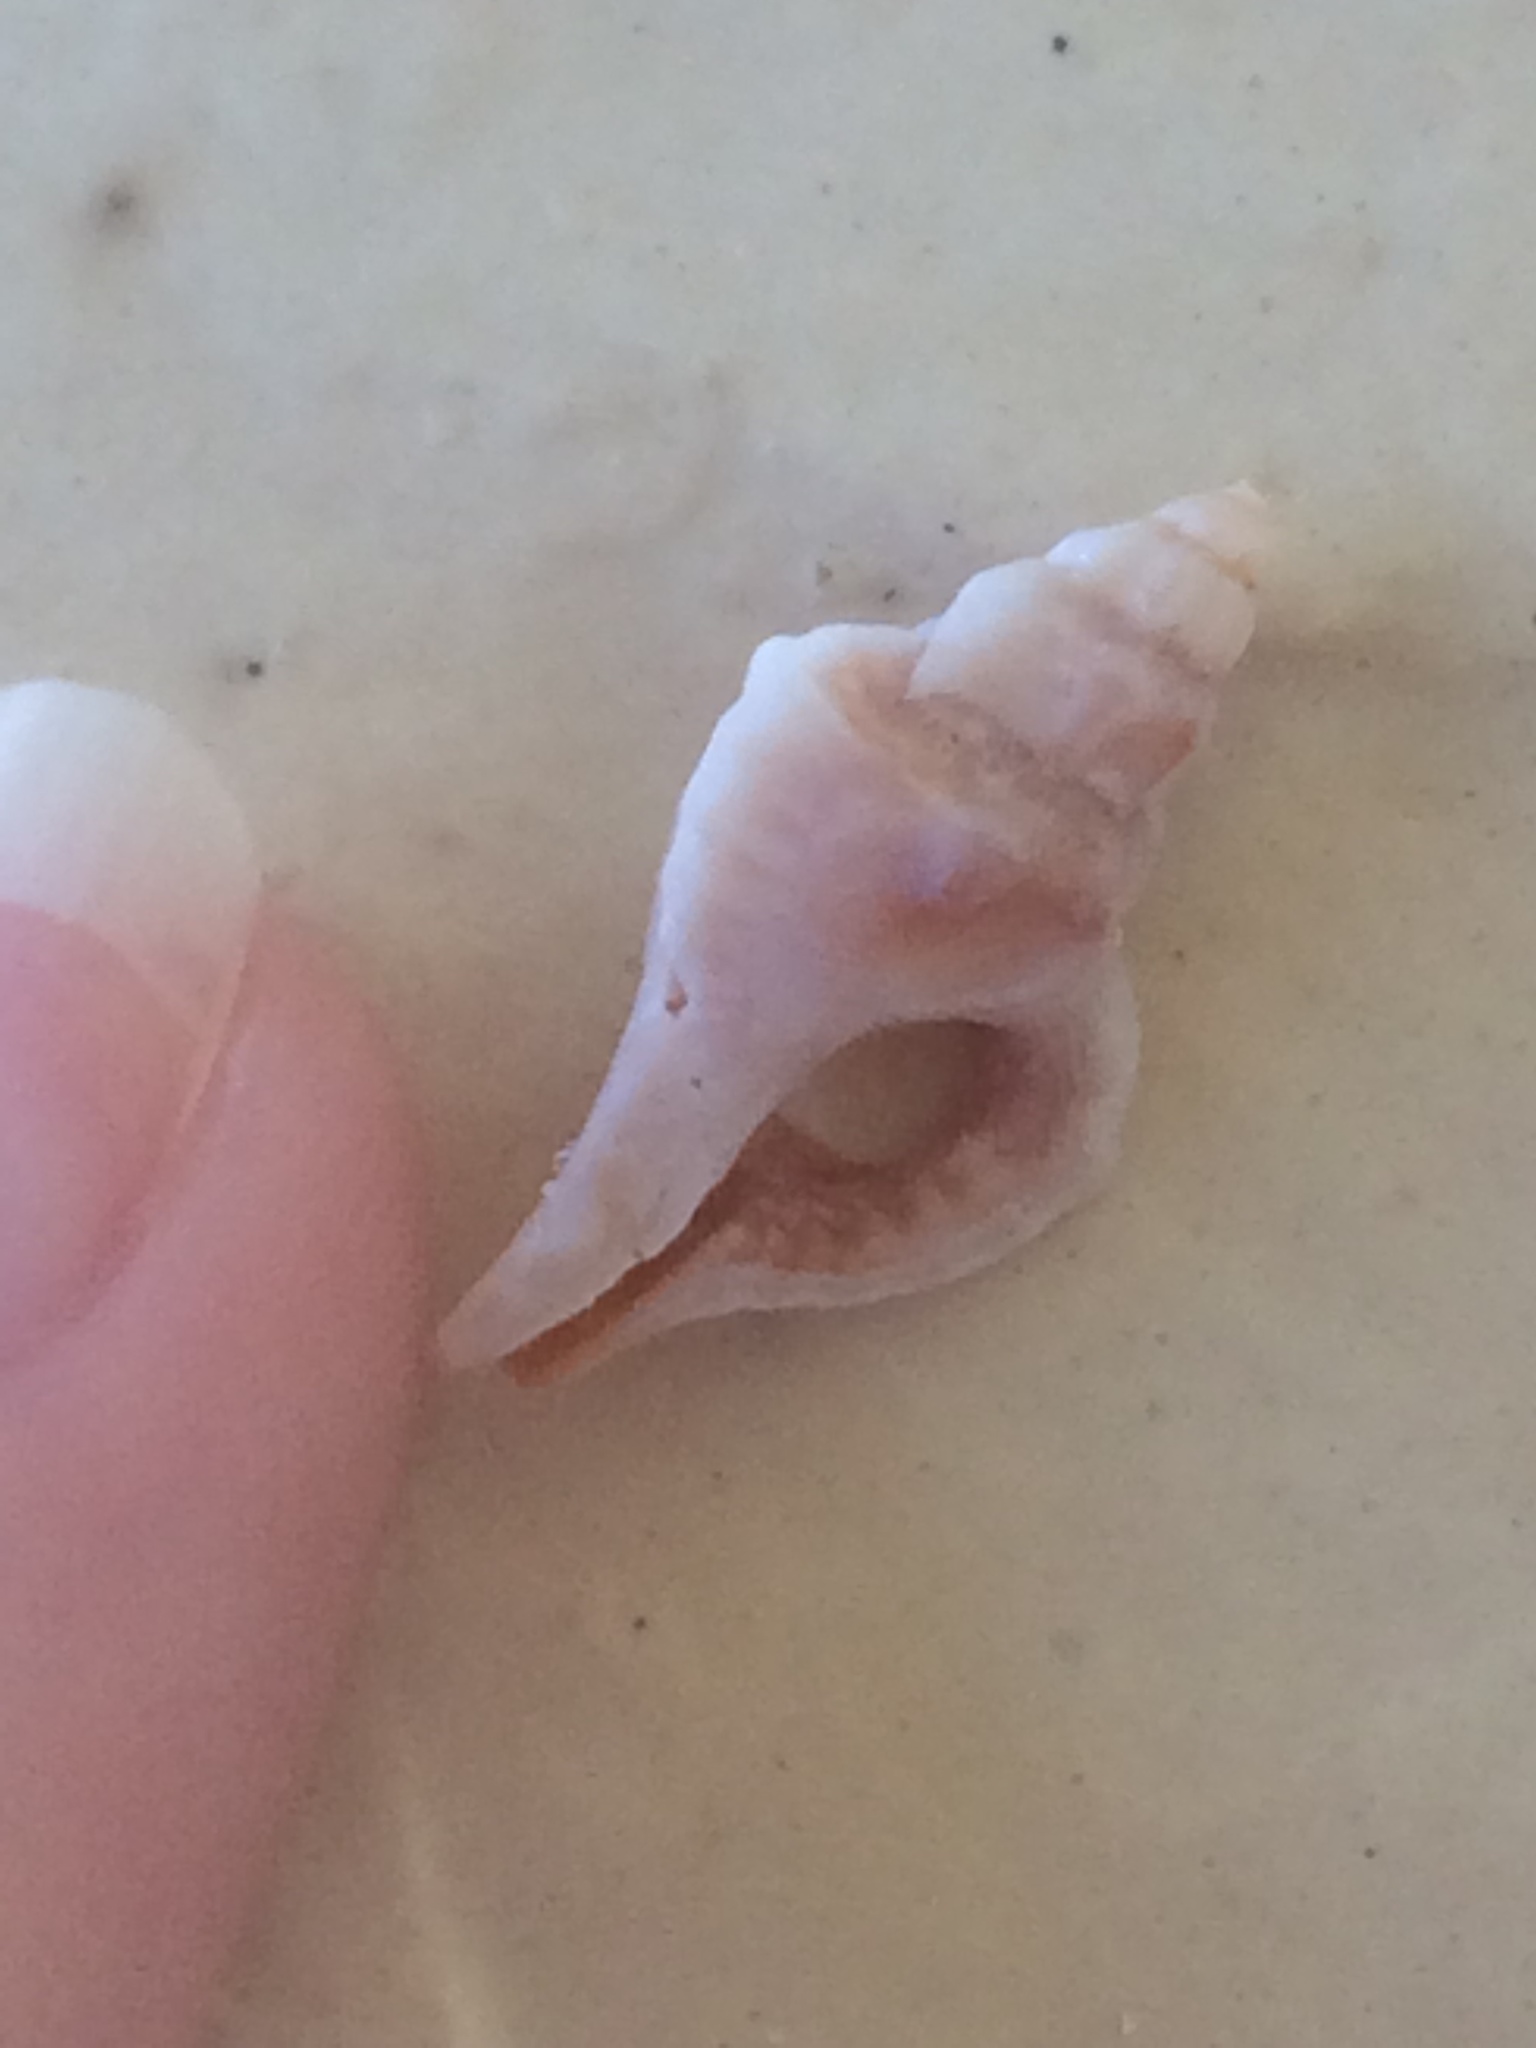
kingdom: Animalia
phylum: Mollusca
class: Gastropoda
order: Neogastropoda
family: Muricidae
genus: Eupleura
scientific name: Eupleura sulcidentata
